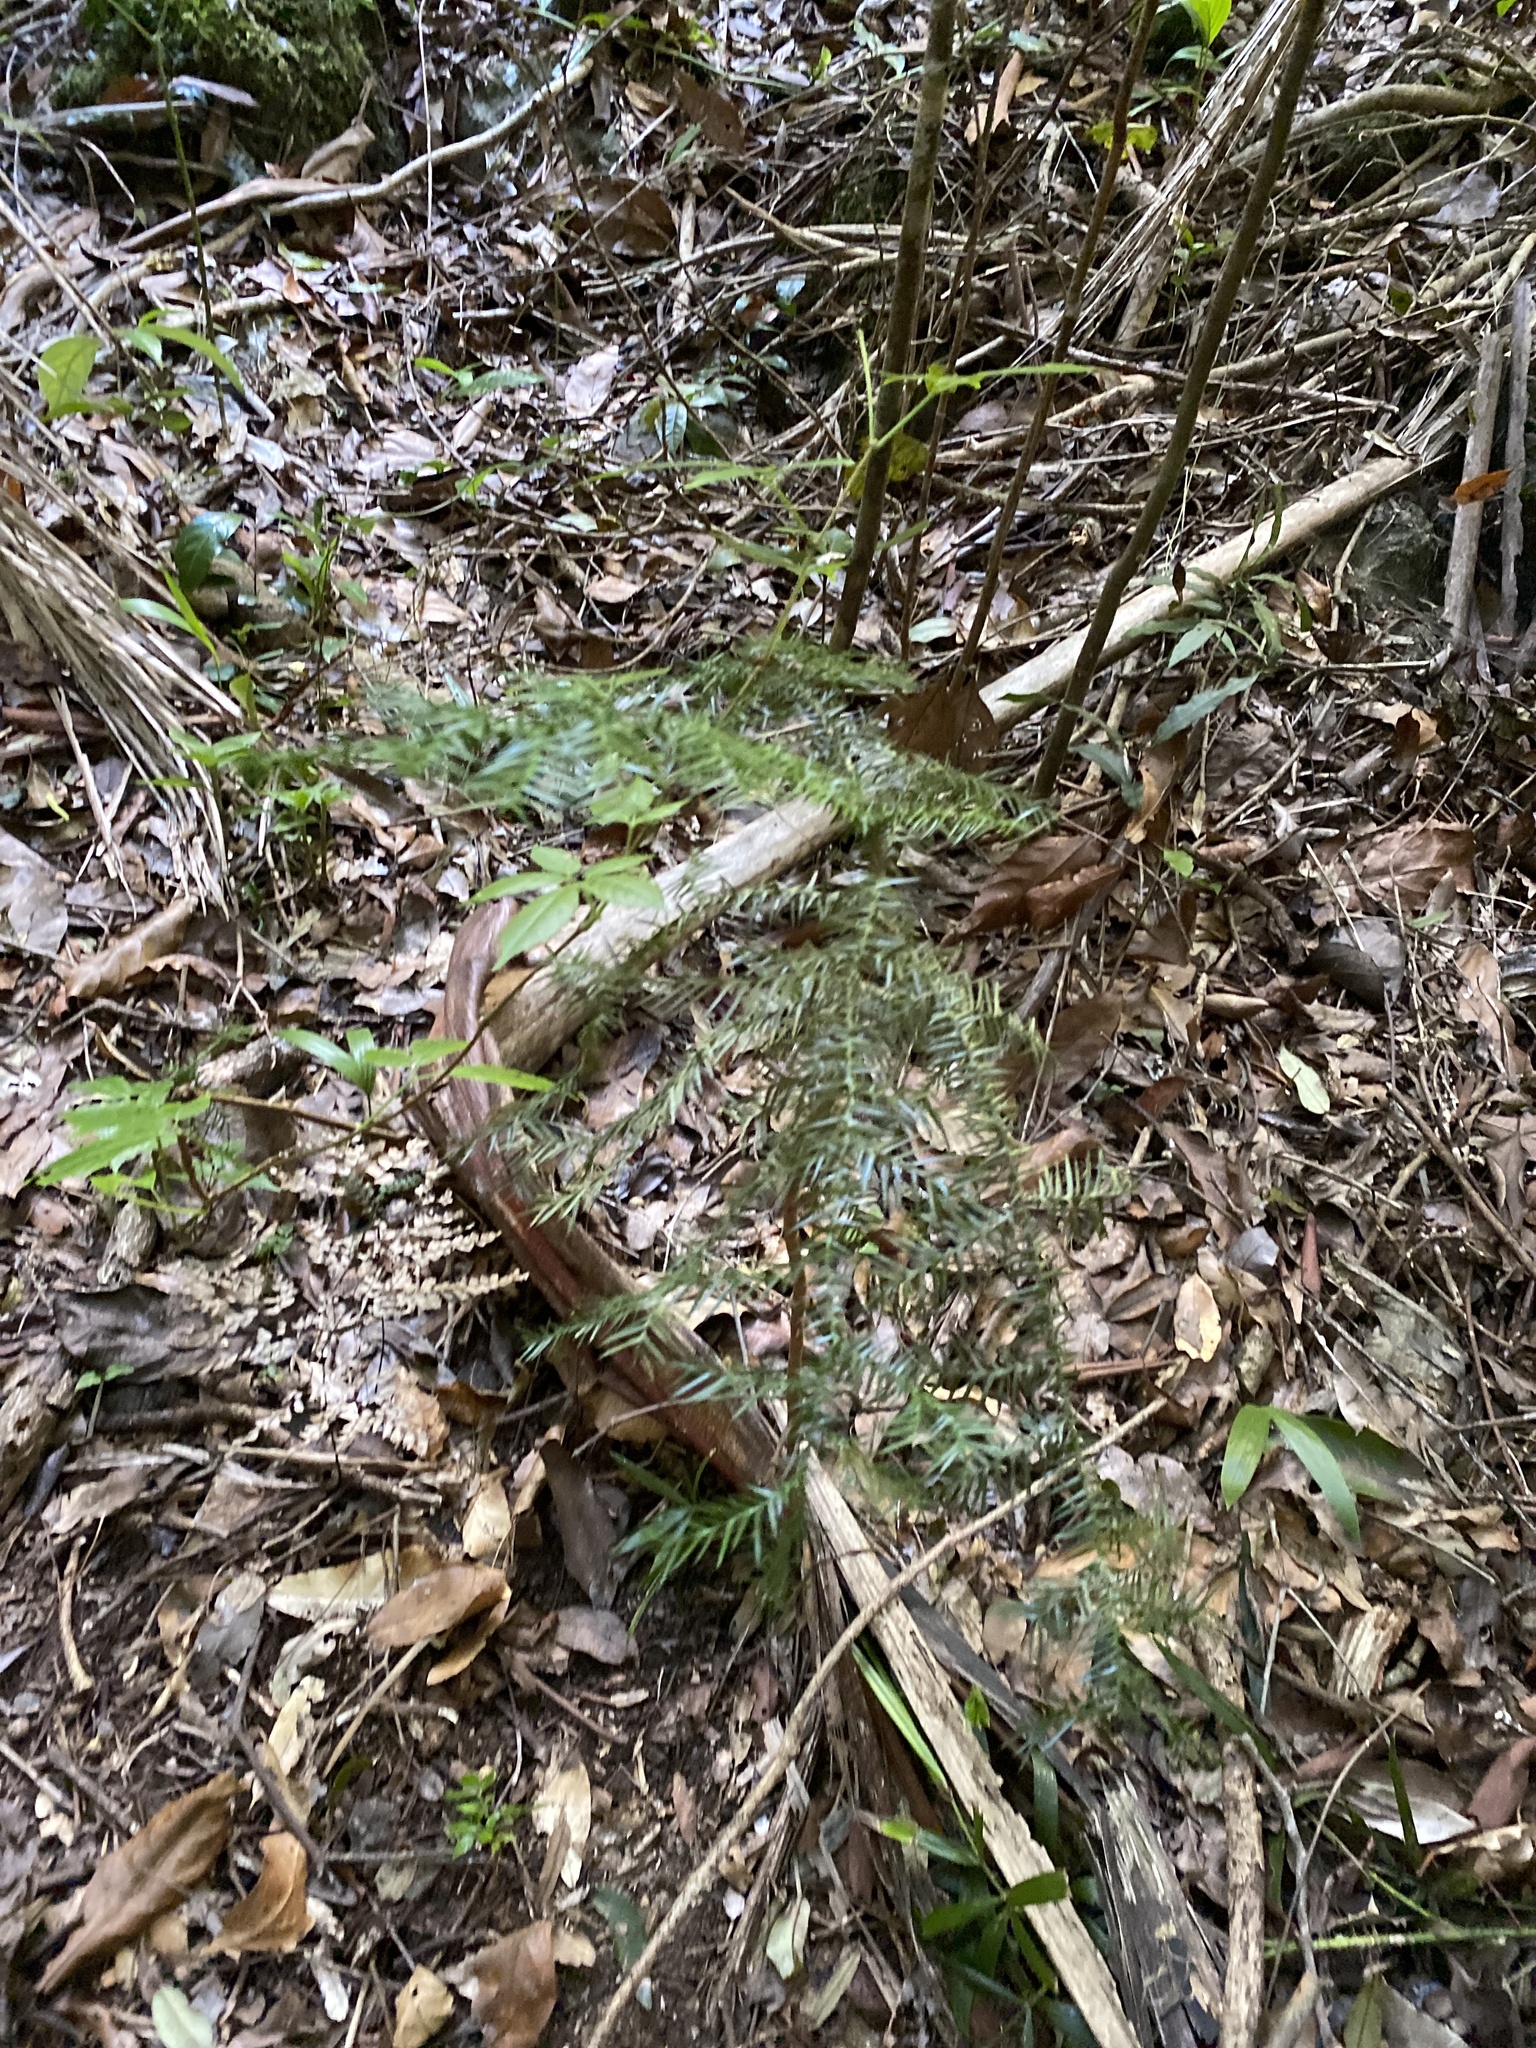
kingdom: Plantae
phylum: Tracheophyta
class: Pinopsida
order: Pinales
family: Araucariaceae
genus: Araucaria
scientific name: Araucaria cunninghamii
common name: Colonial pine
